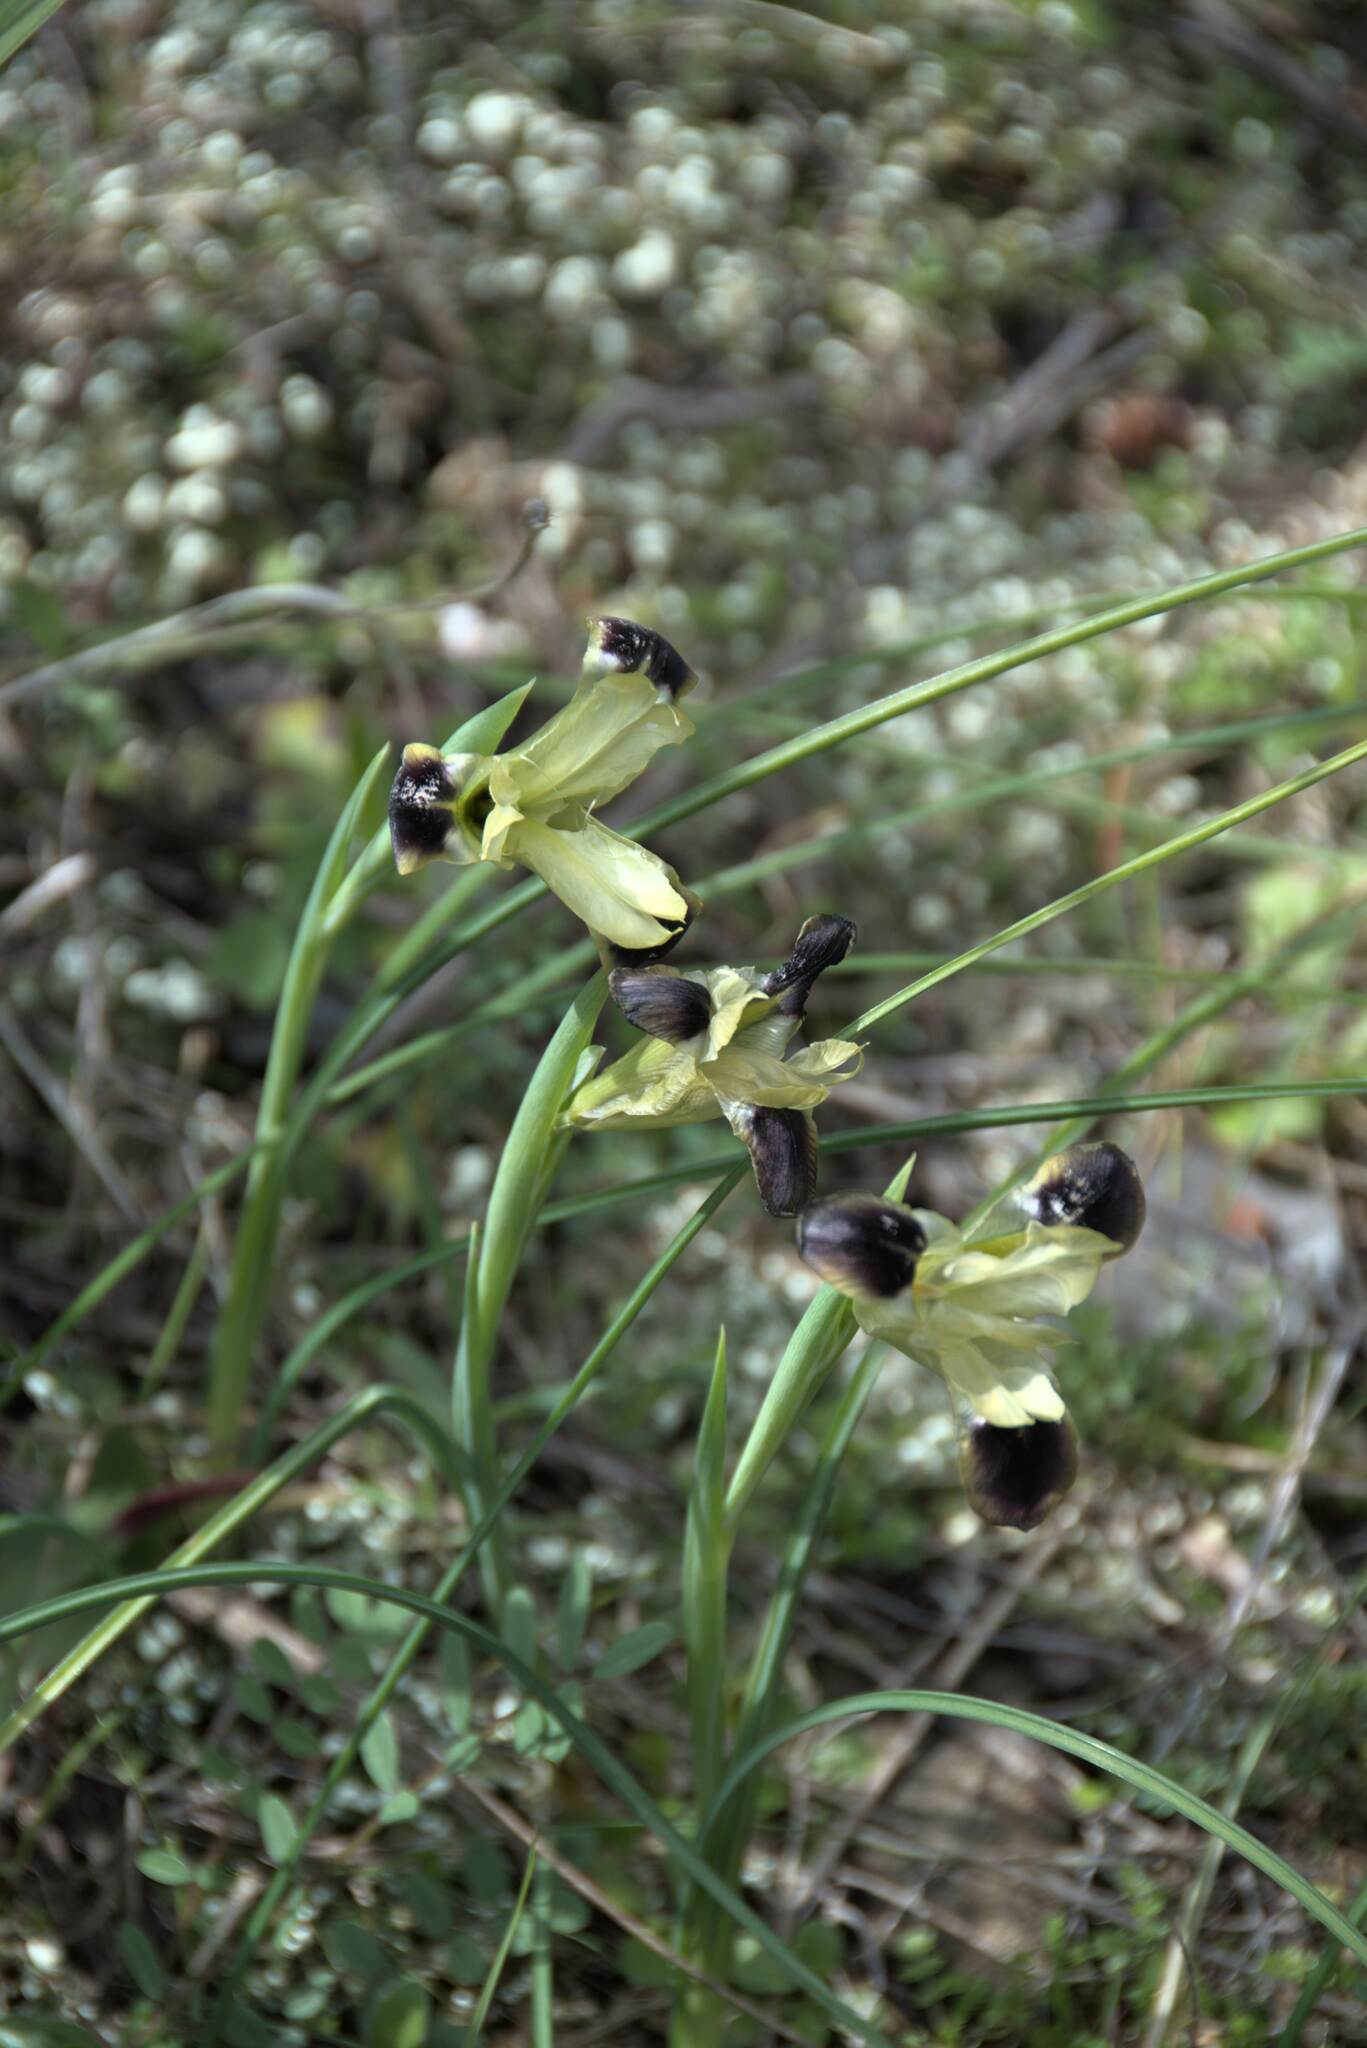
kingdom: Plantae
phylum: Tracheophyta
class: Liliopsida
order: Asparagales
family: Iridaceae
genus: Iris
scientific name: Iris tuberosa
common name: Snake's-head iris
